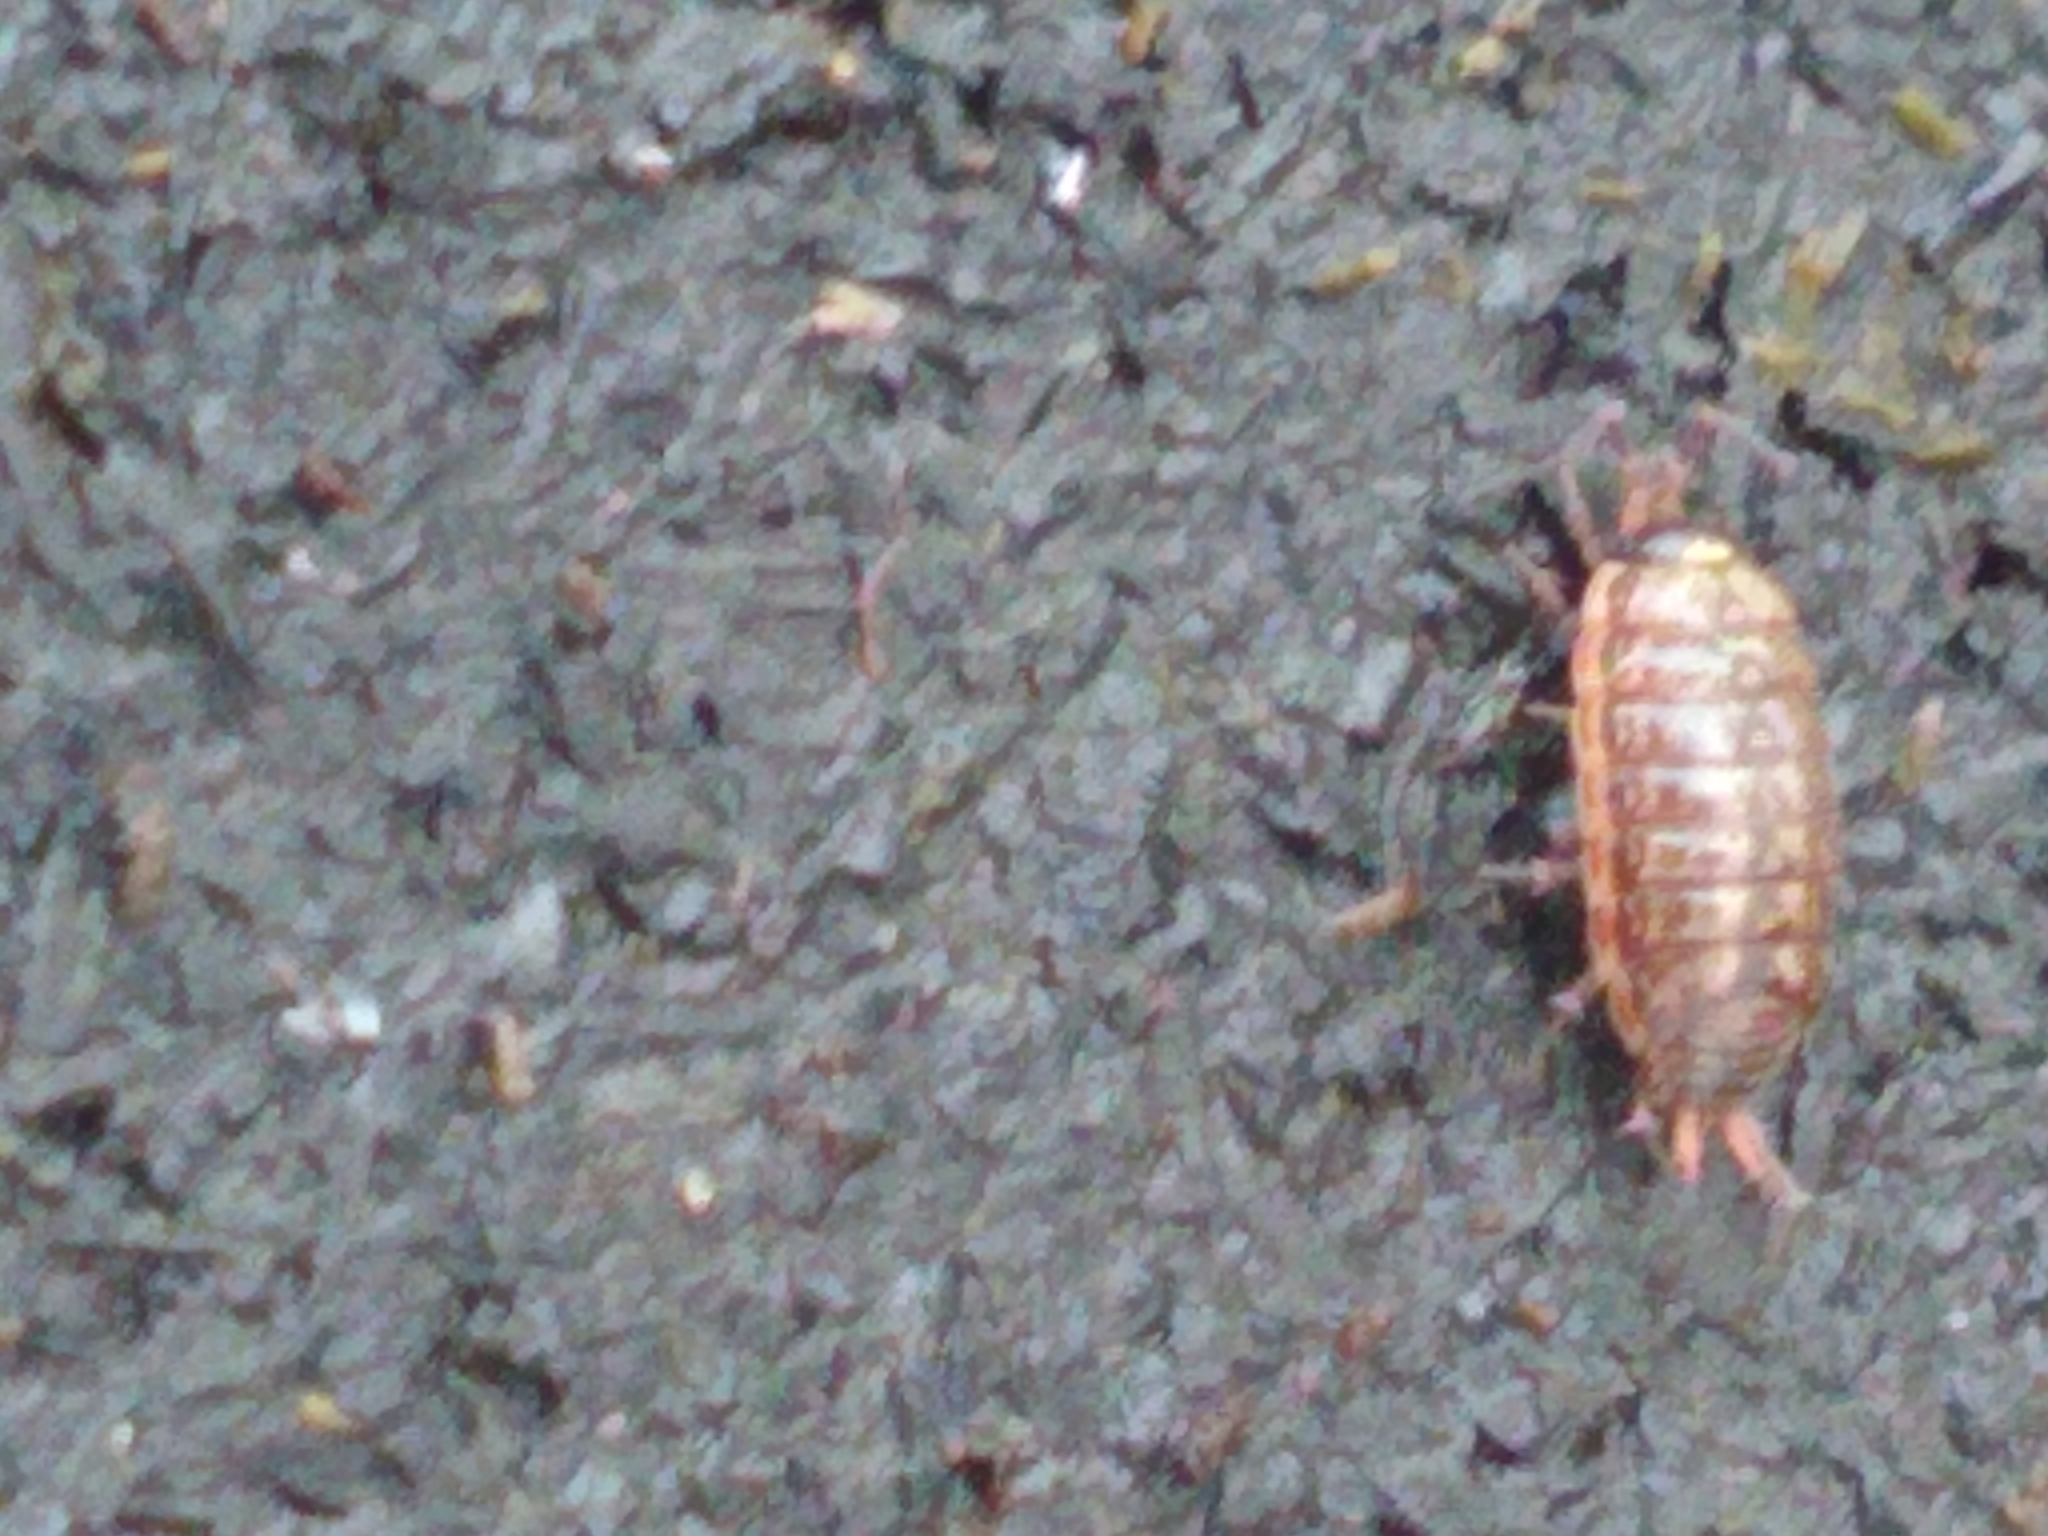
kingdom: Animalia
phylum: Arthropoda
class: Malacostraca
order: Isopoda
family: Philosciidae
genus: Philoscia
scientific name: Philoscia muscorum
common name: Common striped woodlouse
